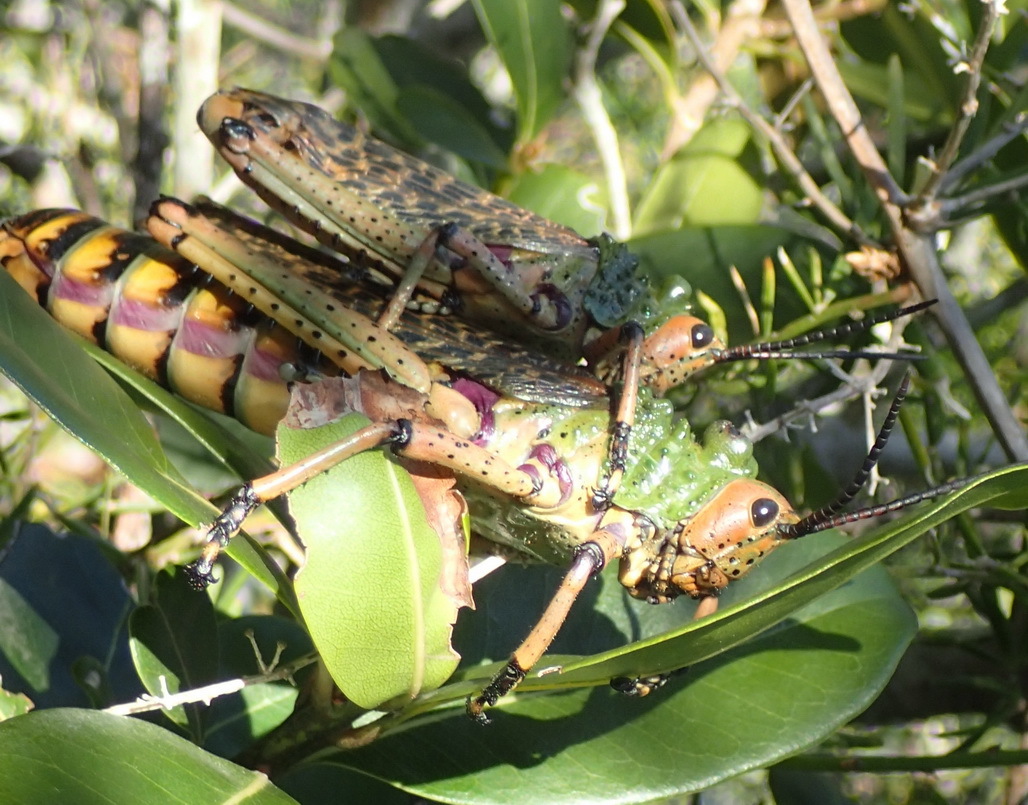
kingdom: Animalia
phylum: Arthropoda
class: Insecta
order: Orthoptera
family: Pyrgomorphidae
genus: Phymateus
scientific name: Phymateus leprosus
